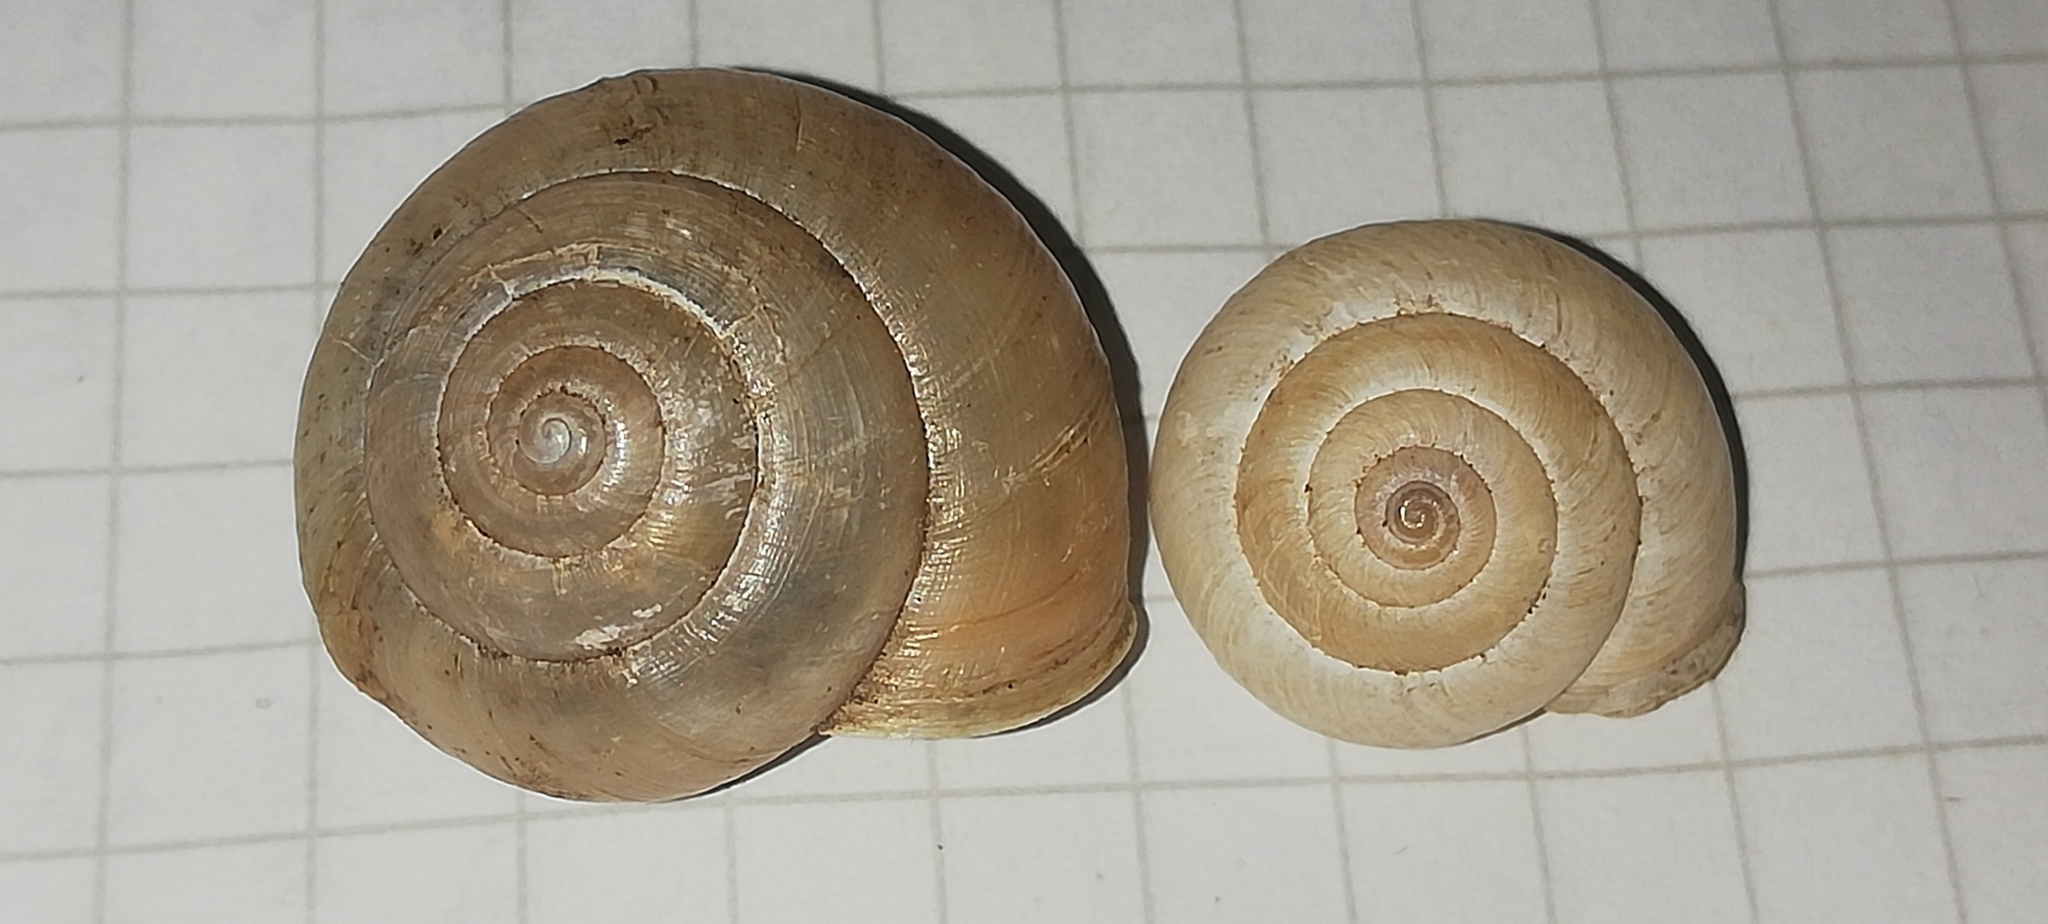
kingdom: Animalia
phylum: Mollusca
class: Gastropoda
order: Stylommatophora
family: Hygromiidae
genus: Euomphalia
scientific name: Euomphalia strigella
